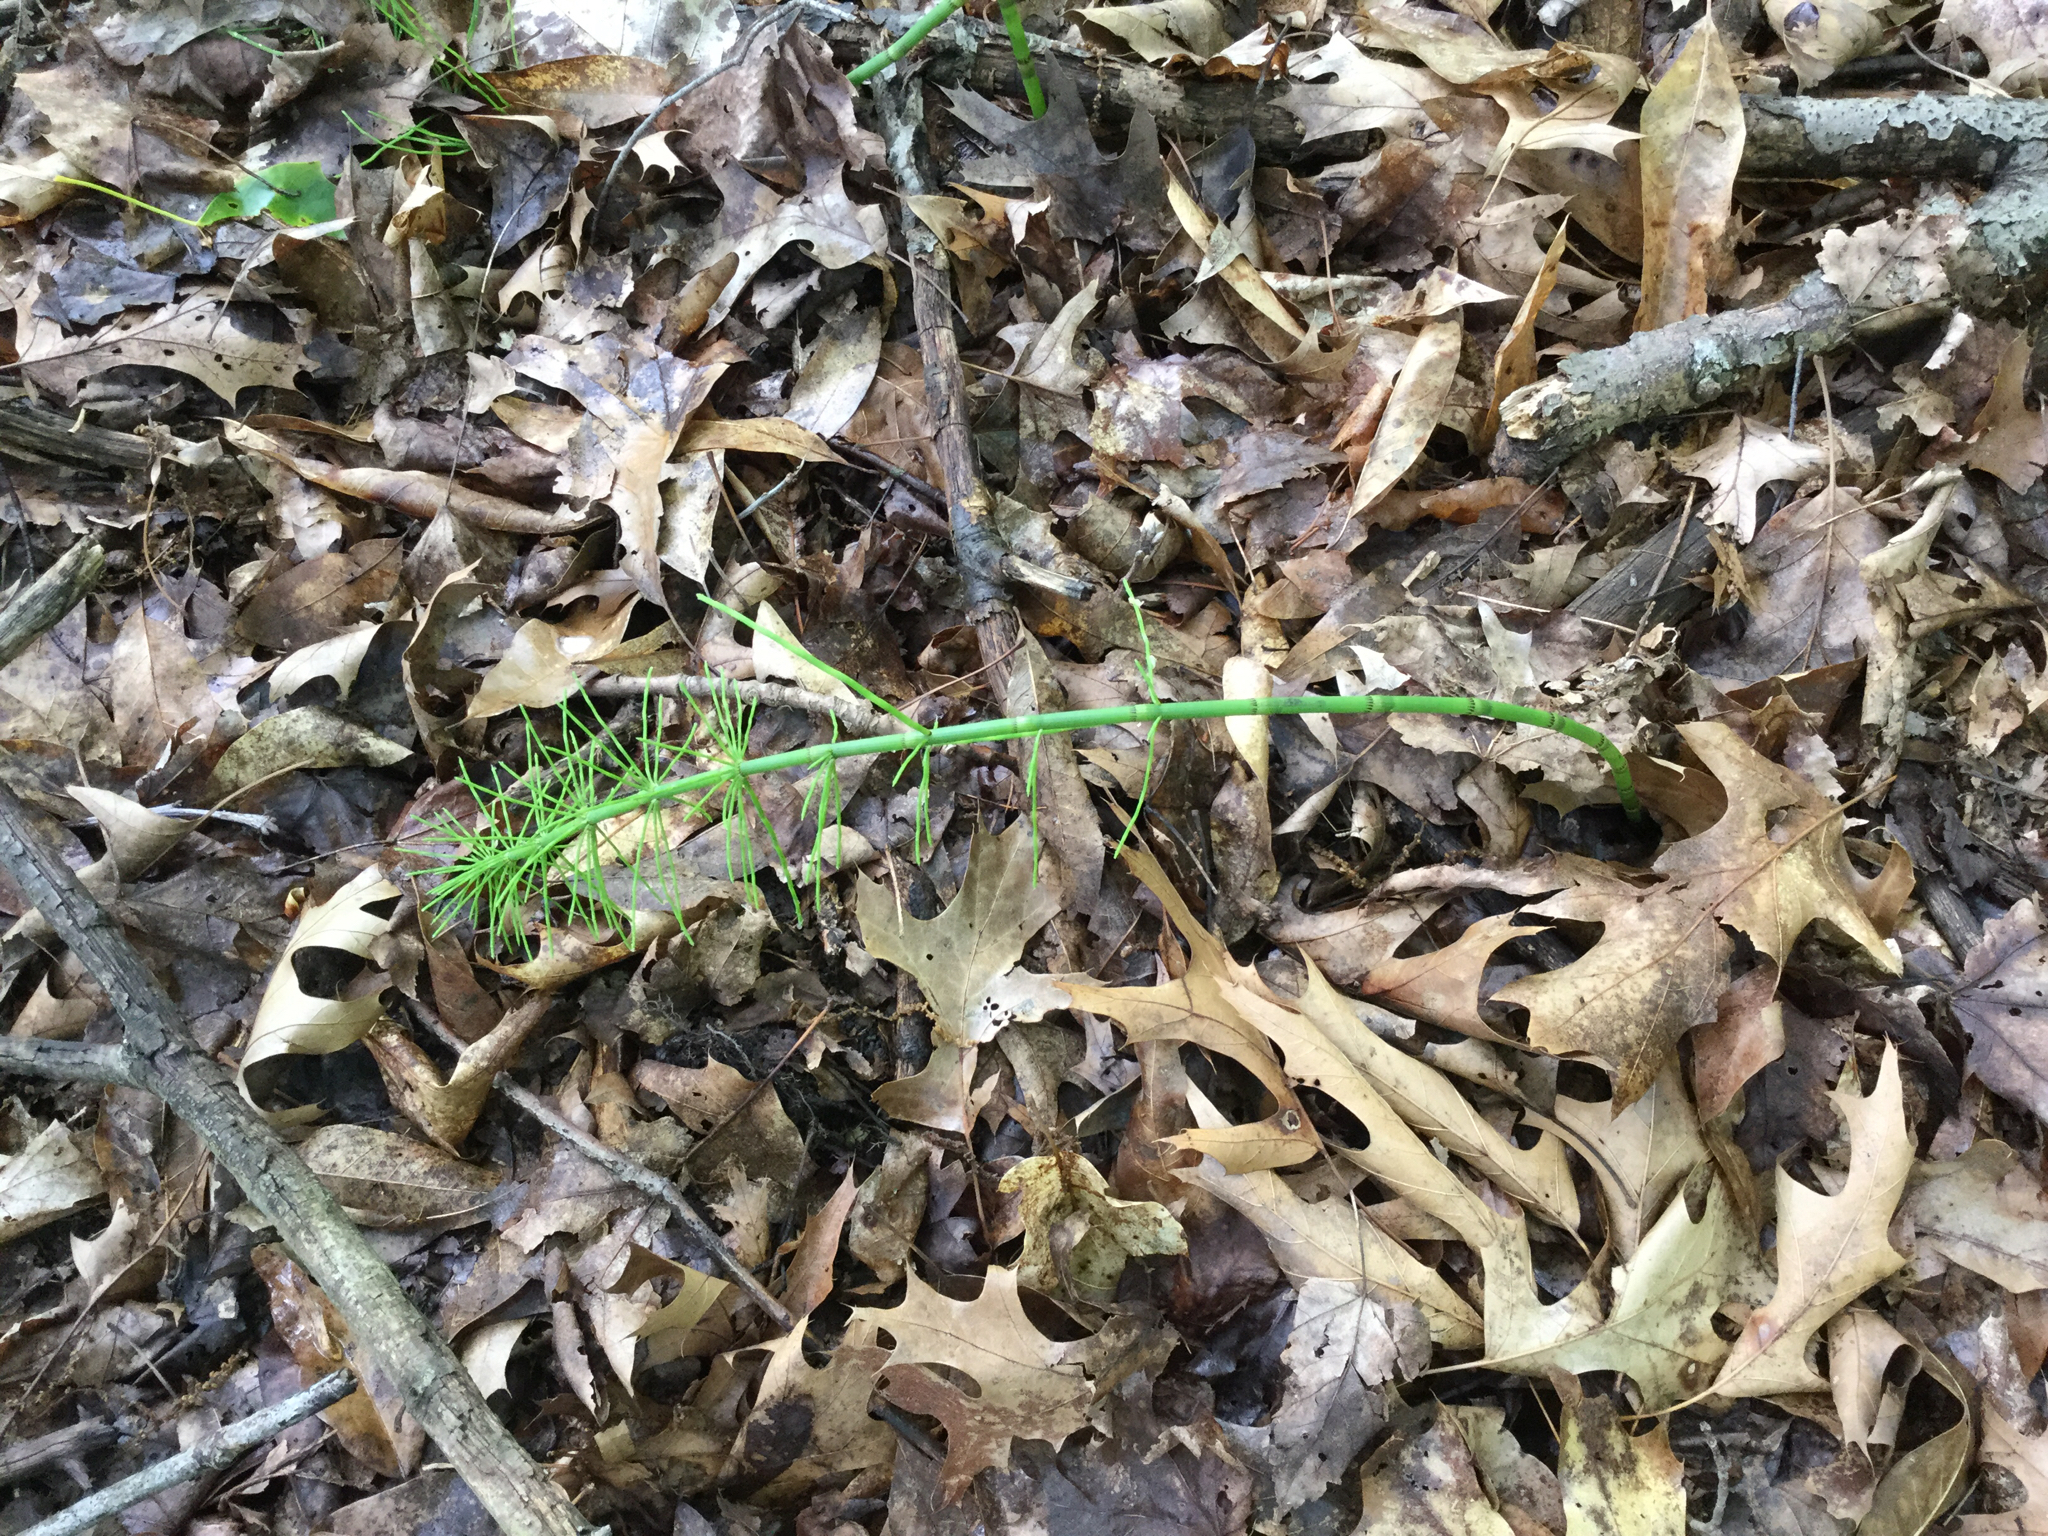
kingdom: Plantae
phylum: Tracheophyta
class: Polypodiopsida
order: Equisetales
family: Equisetaceae
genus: Equisetum
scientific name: Equisetum fluviatile
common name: Water horsetail
